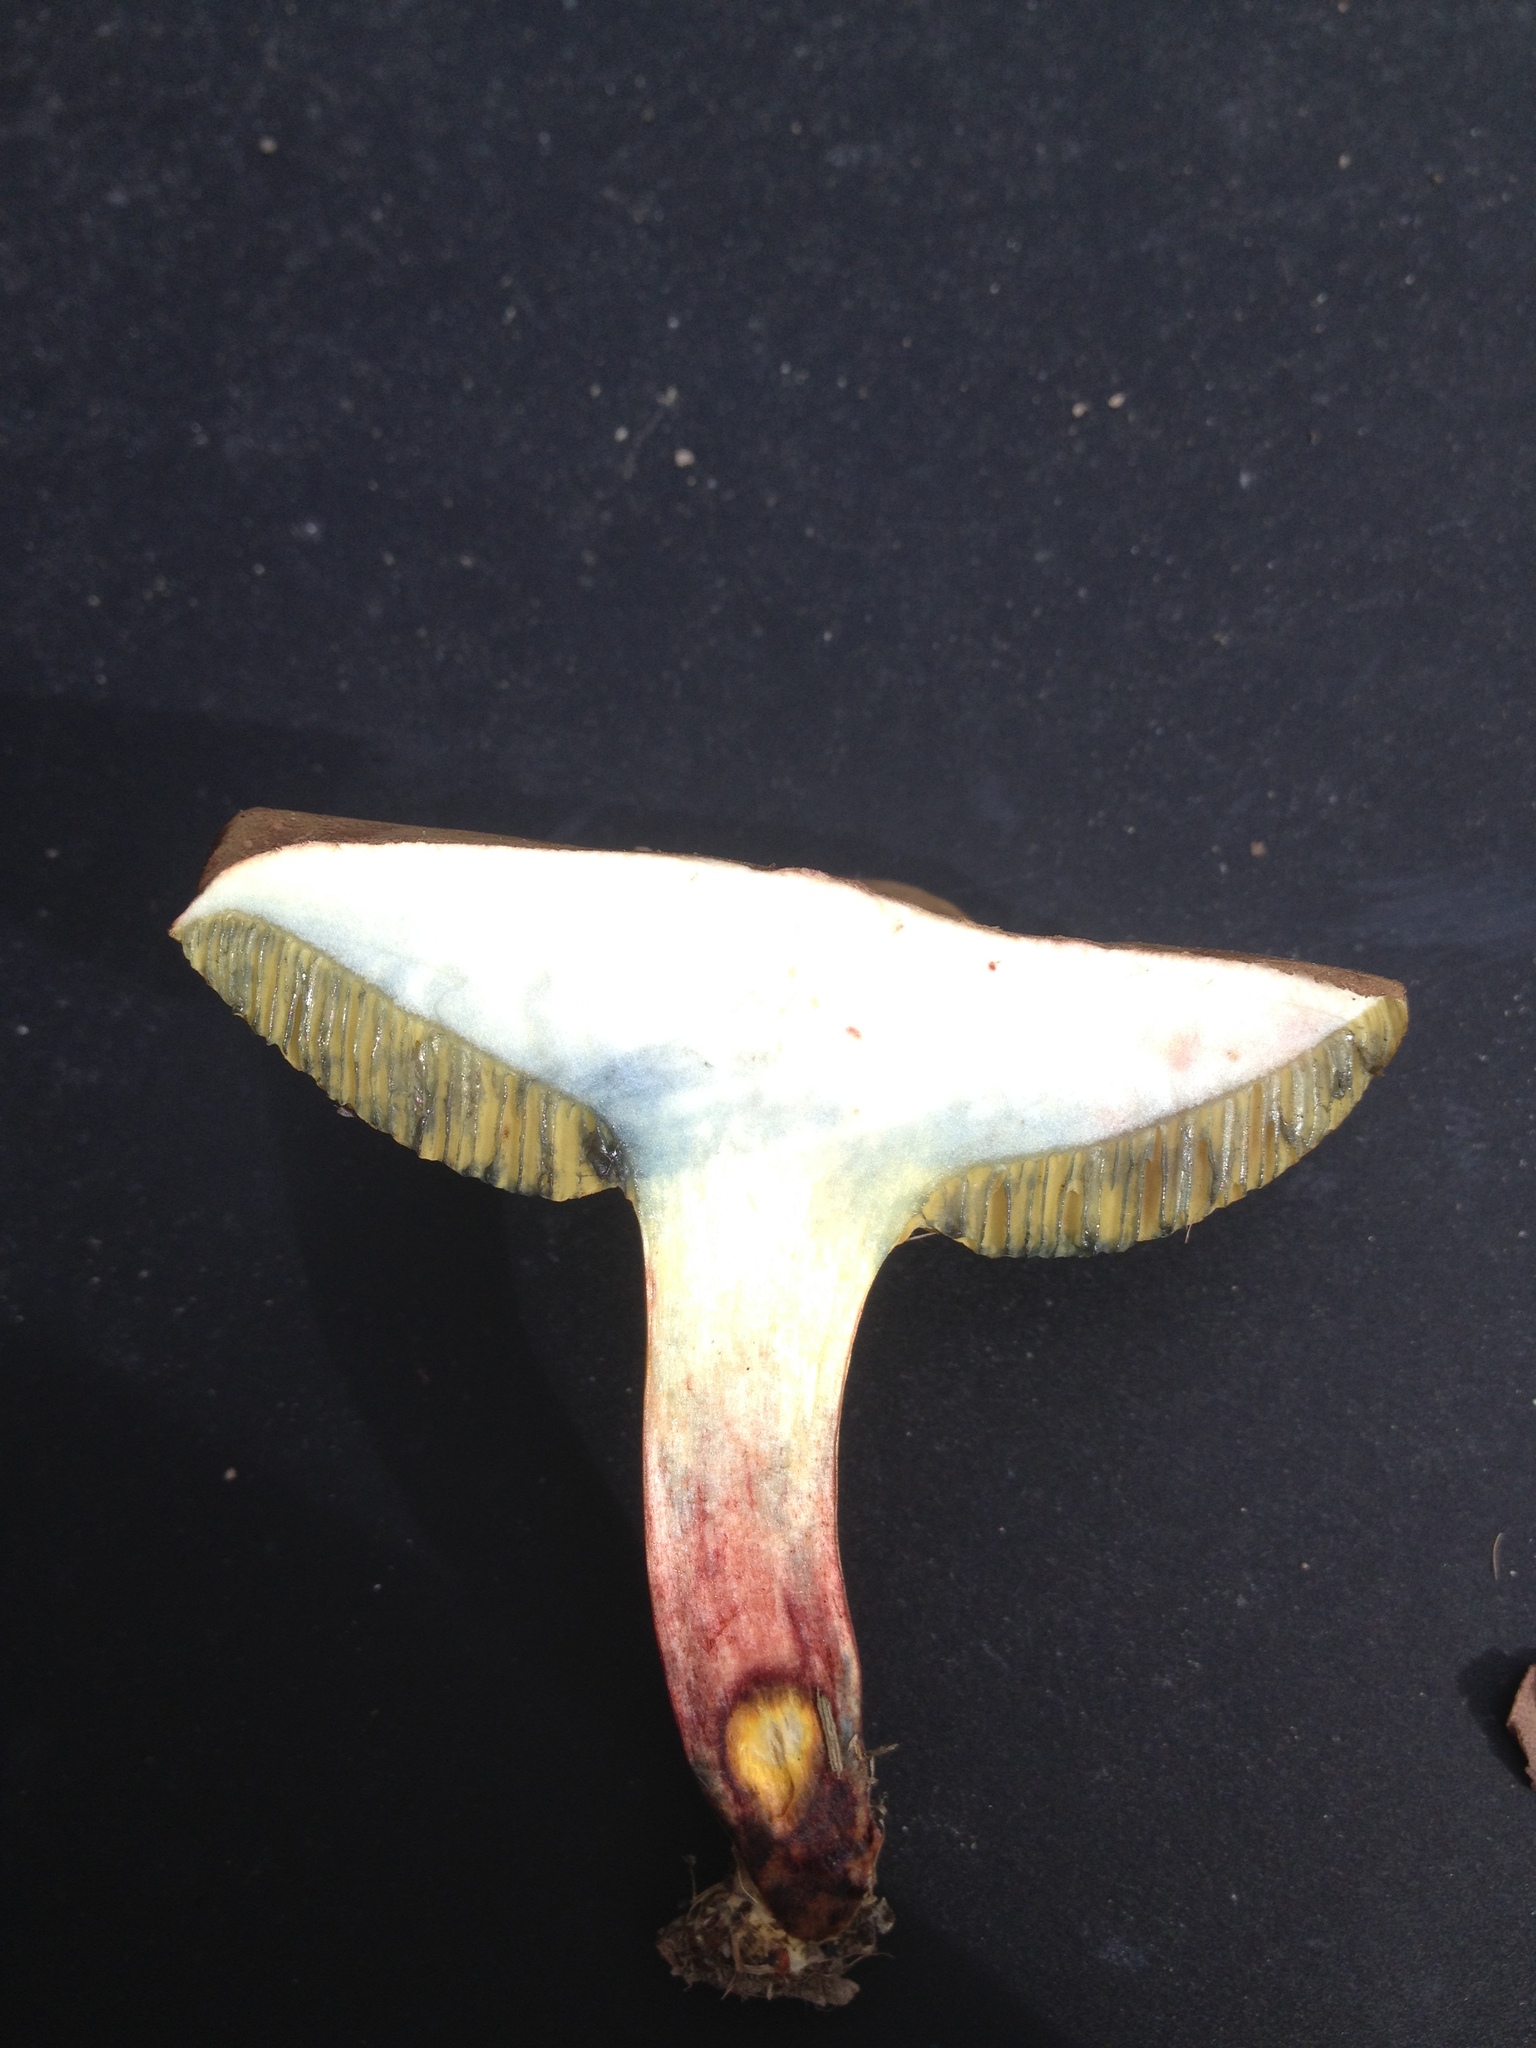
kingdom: Fungi
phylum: Basidiomycota
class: Agaricomycetes
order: Boletales
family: Boletaceae
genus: Xerocomellus
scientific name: Xerocomellus cisalpinus
